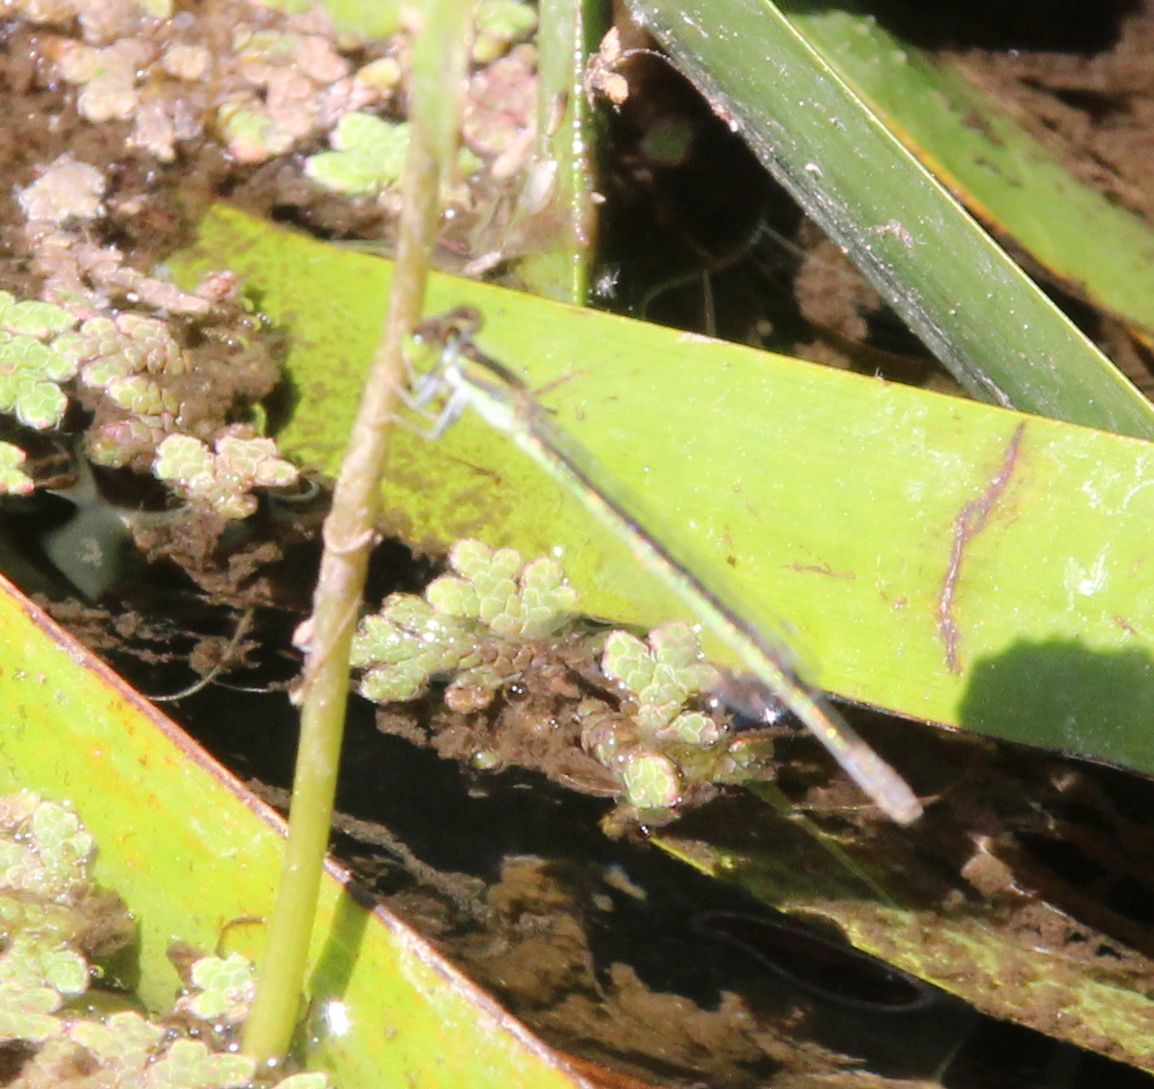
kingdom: Plantae
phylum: Tracheophyta
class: Polypodiopsida
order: Salviniales
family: Salviniaceae
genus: Azolla
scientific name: Azolla rubra
